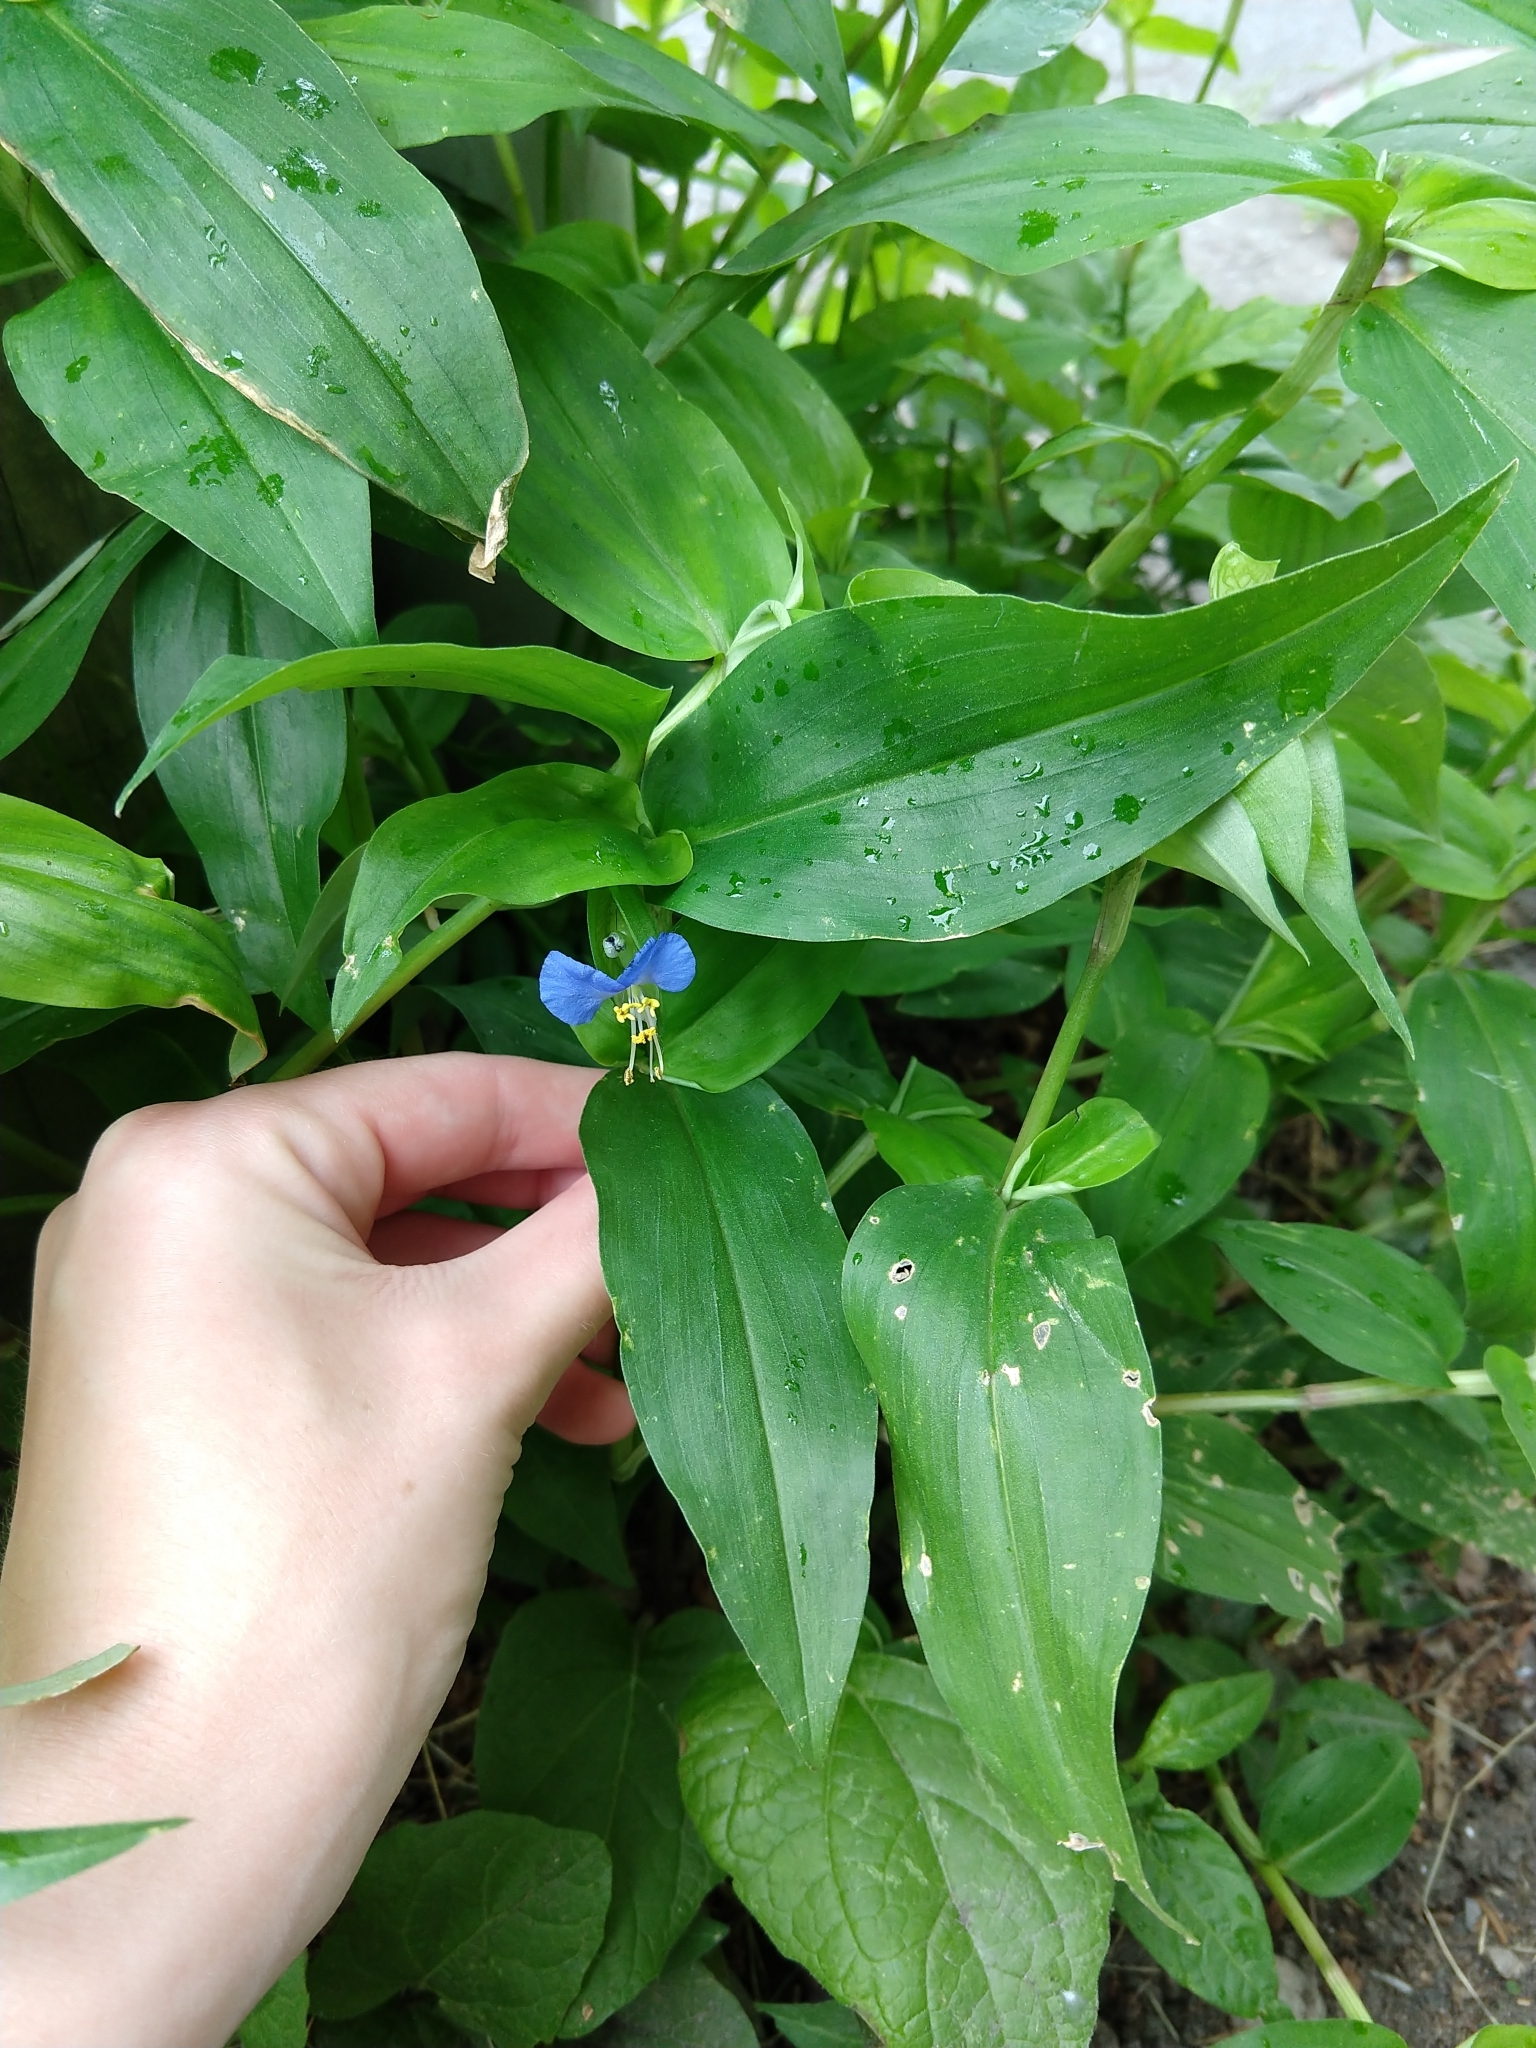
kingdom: Plantae
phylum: Tracheophyta
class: Liliopsida
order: Commelinales
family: Commelinaceae
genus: Commelina
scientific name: Commelina communis
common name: Asiatic dayflower
